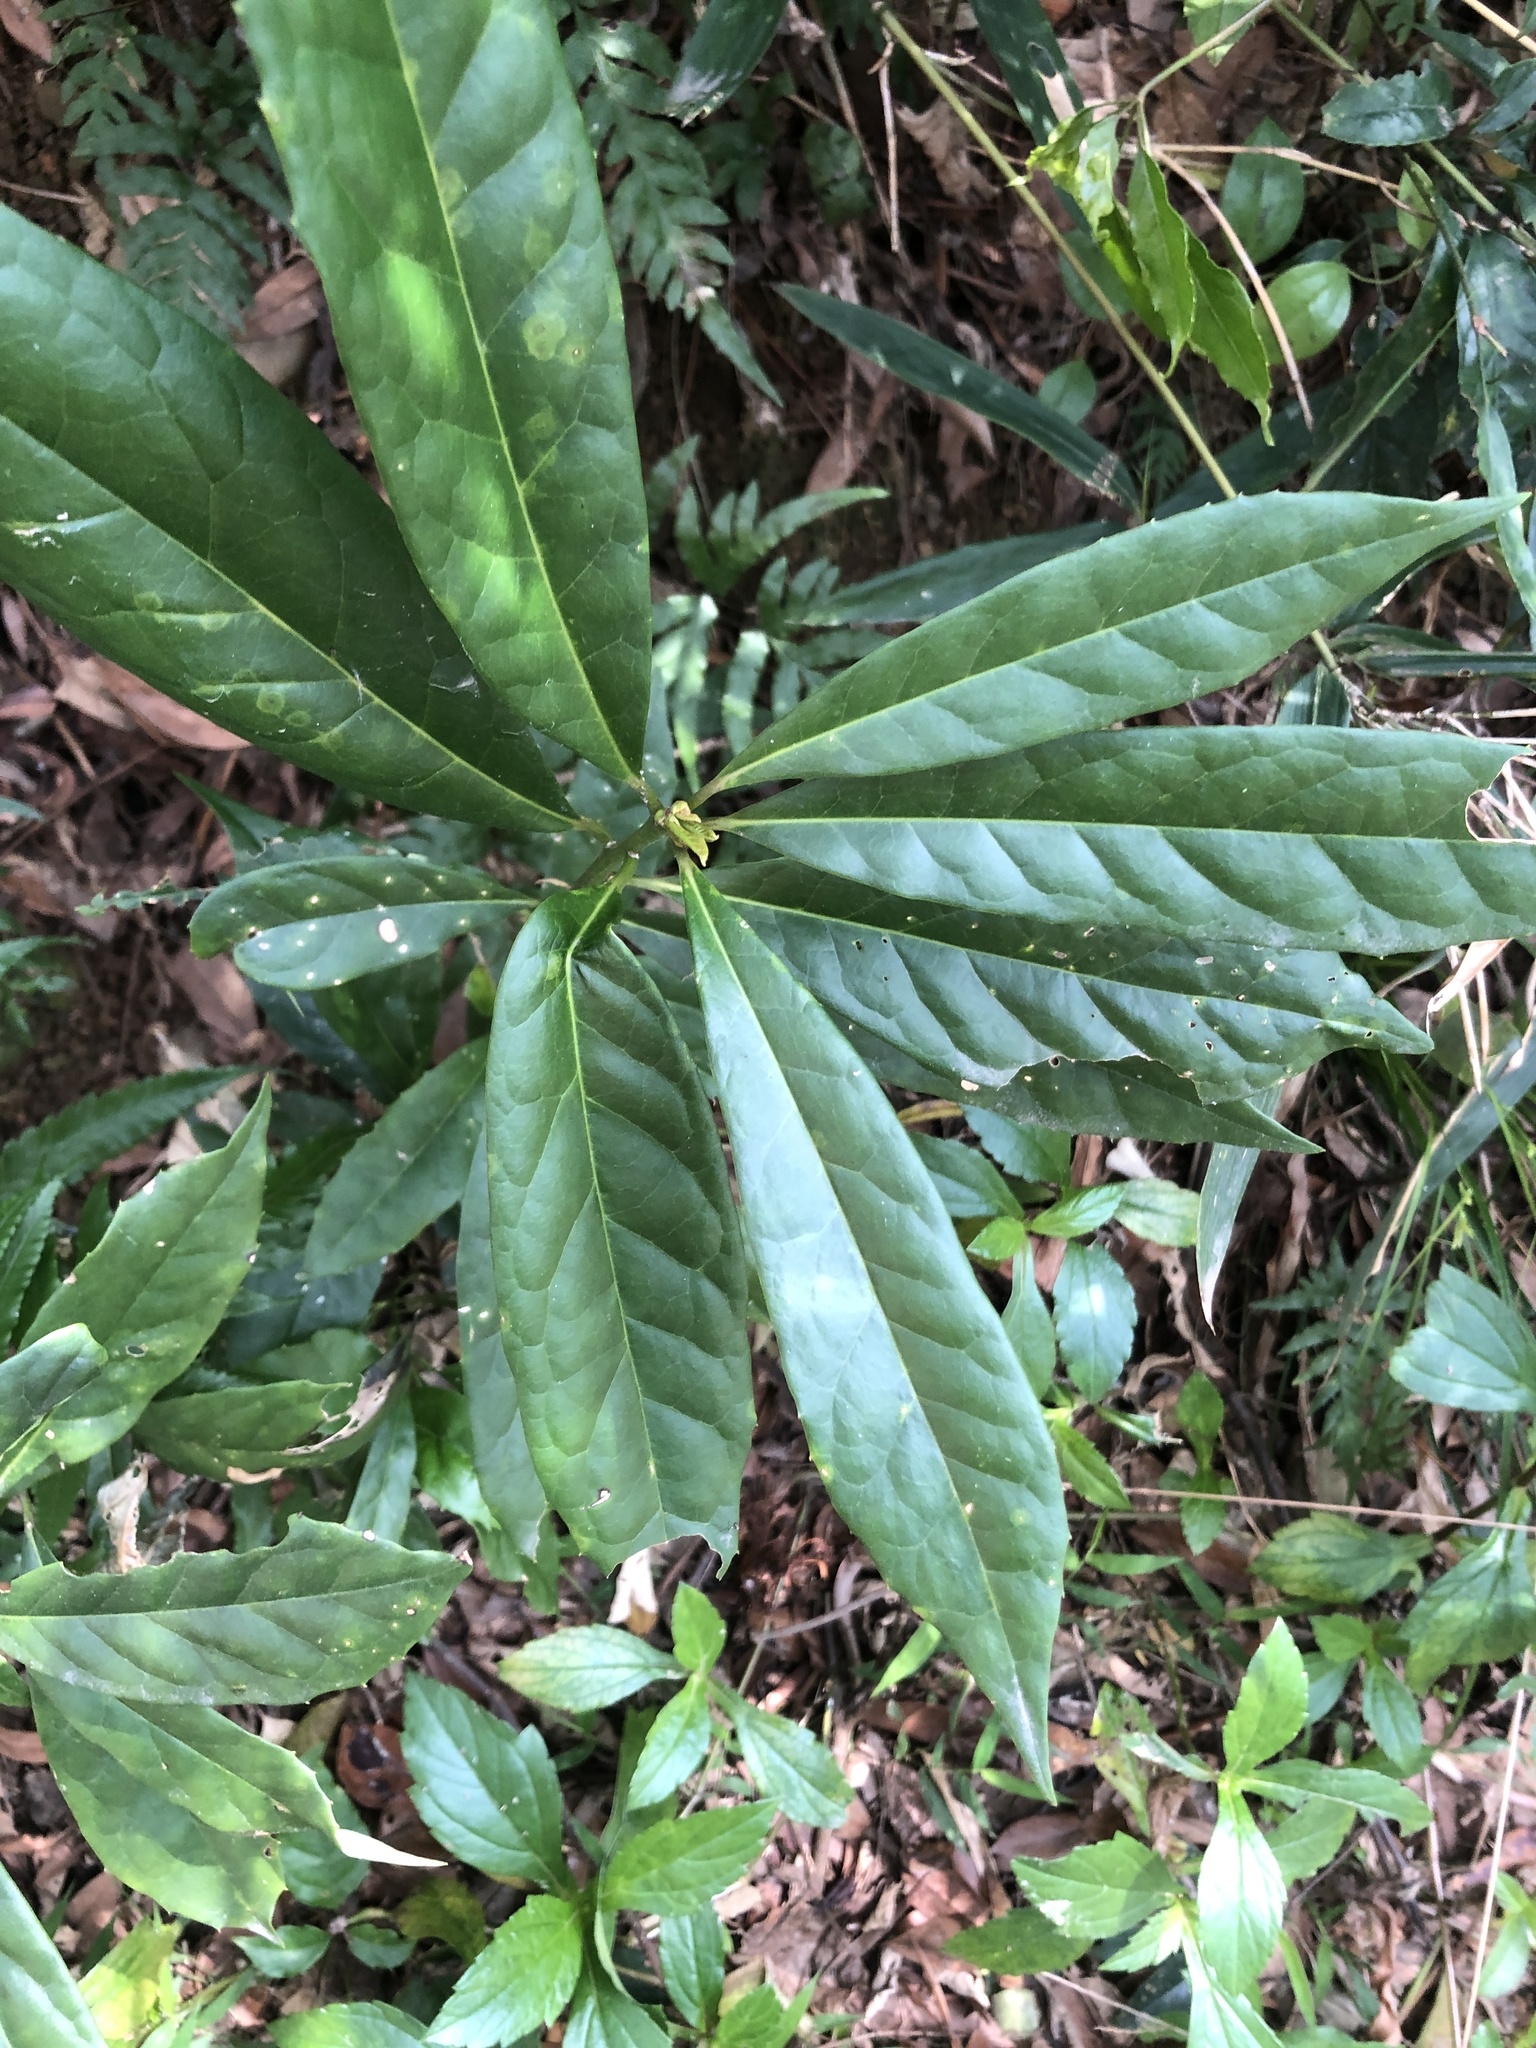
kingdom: Plantae
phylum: Tracheophyta
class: Magnoliopsida
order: Ericales
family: Symplocaceae
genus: Symplocos
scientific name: Symplocos glauca
